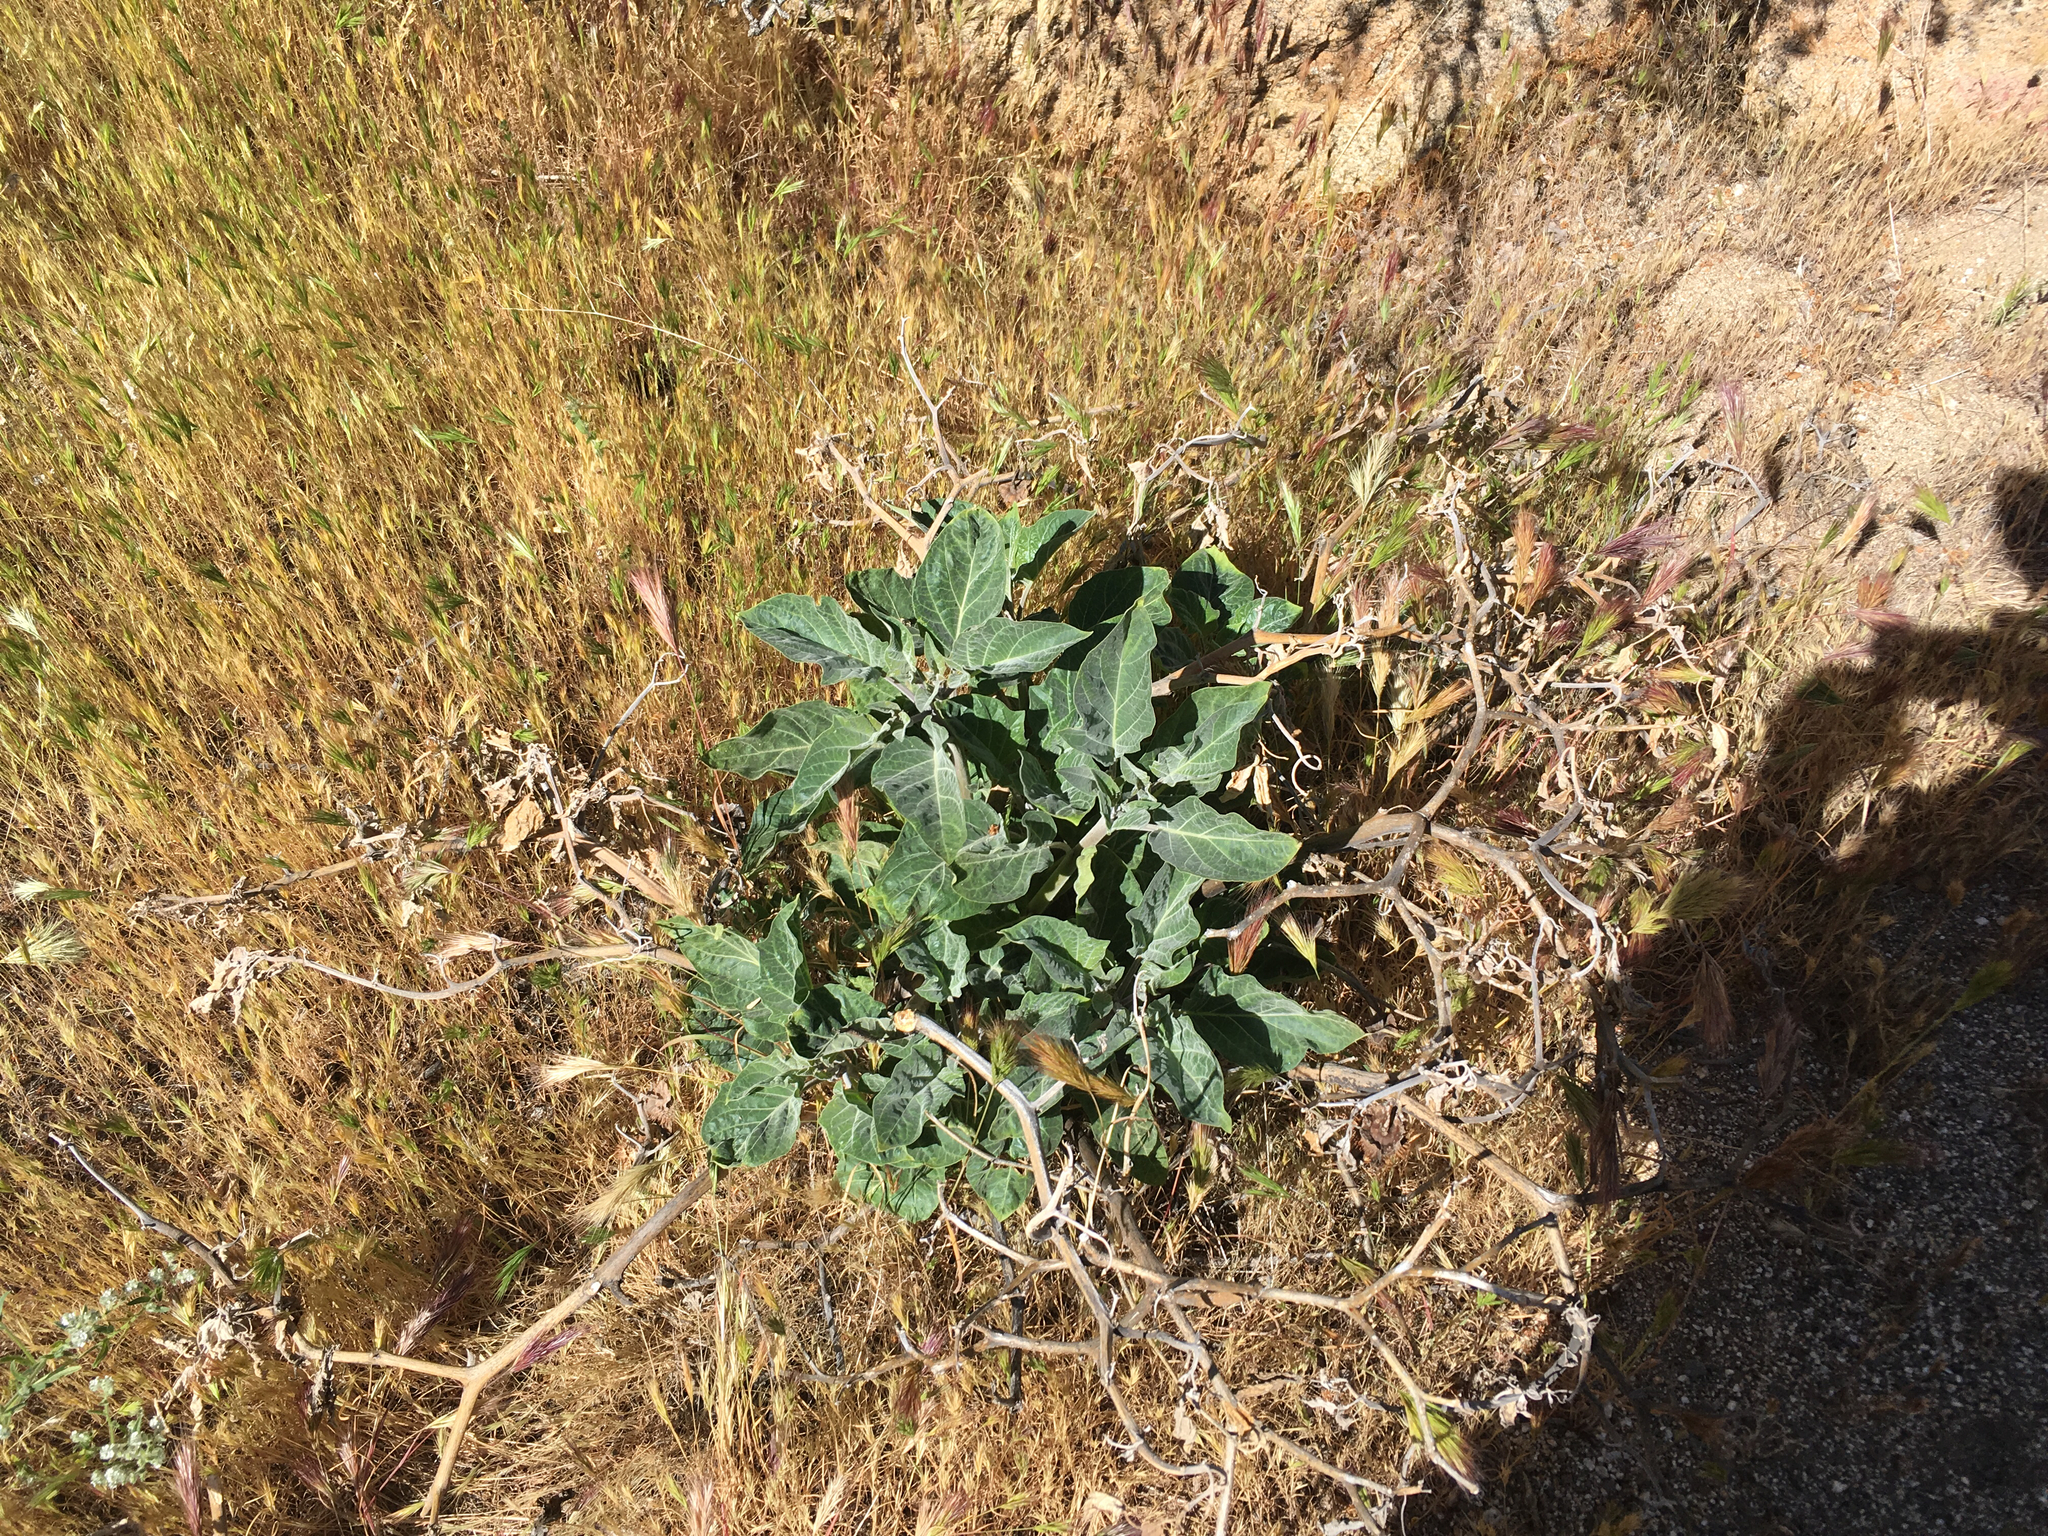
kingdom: Plantae
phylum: Tracheophyta
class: Magnoliopsida
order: Solanales
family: Solanaceae
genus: Datura
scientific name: Datura wrightii
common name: Sacred thorn-apple
